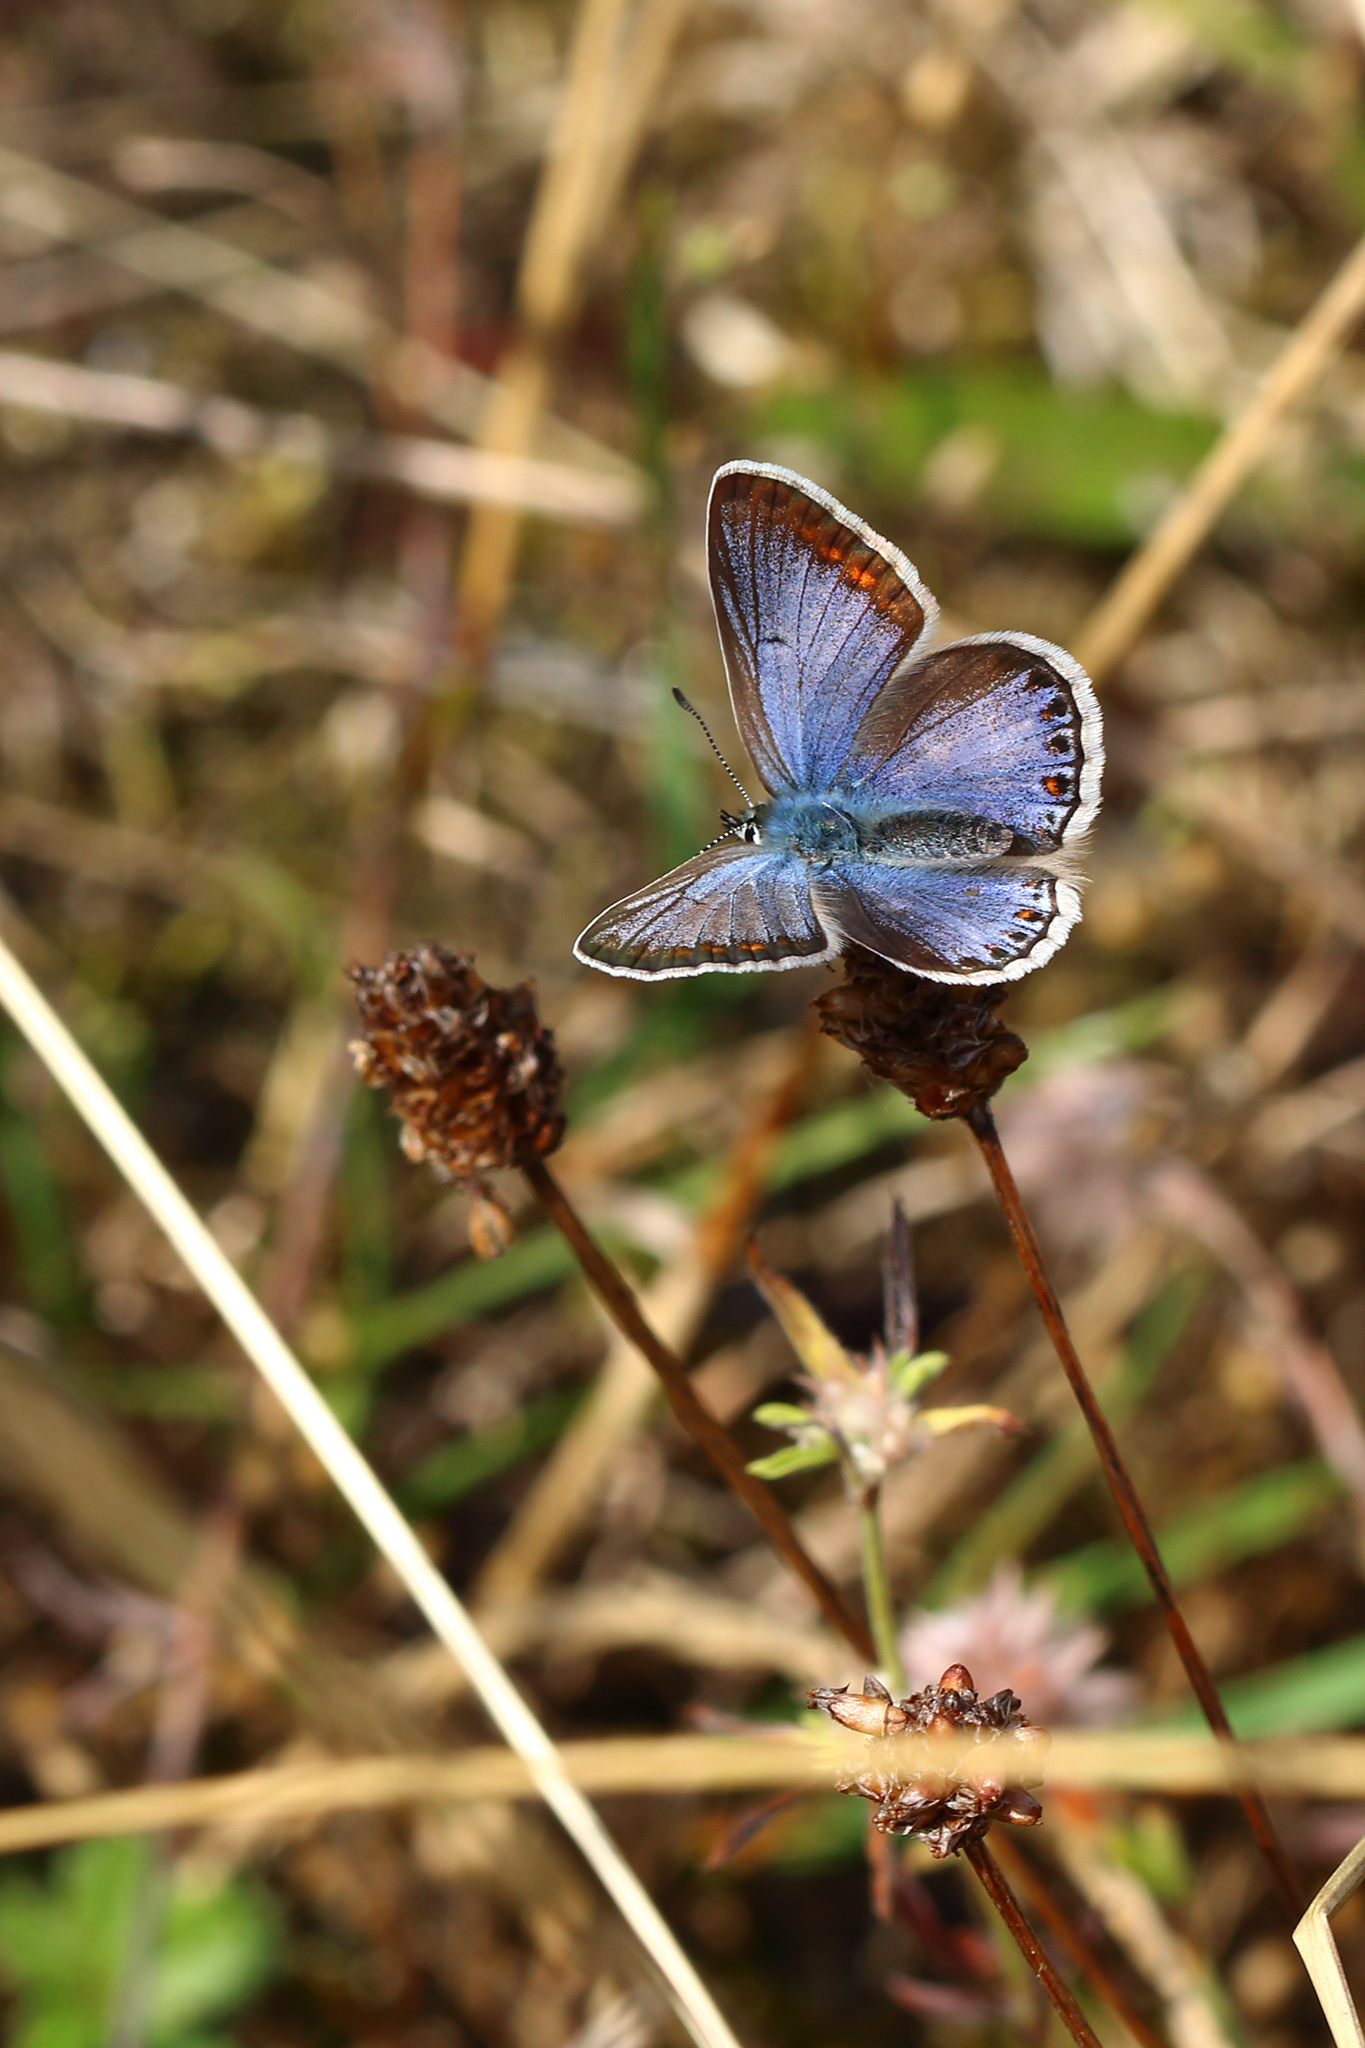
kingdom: Animalia
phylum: Arthropoda
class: Insecta
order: Lepidoptera
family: Lycaenidae
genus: Polyommatus
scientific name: Polyommatus icarus
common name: Common blue
